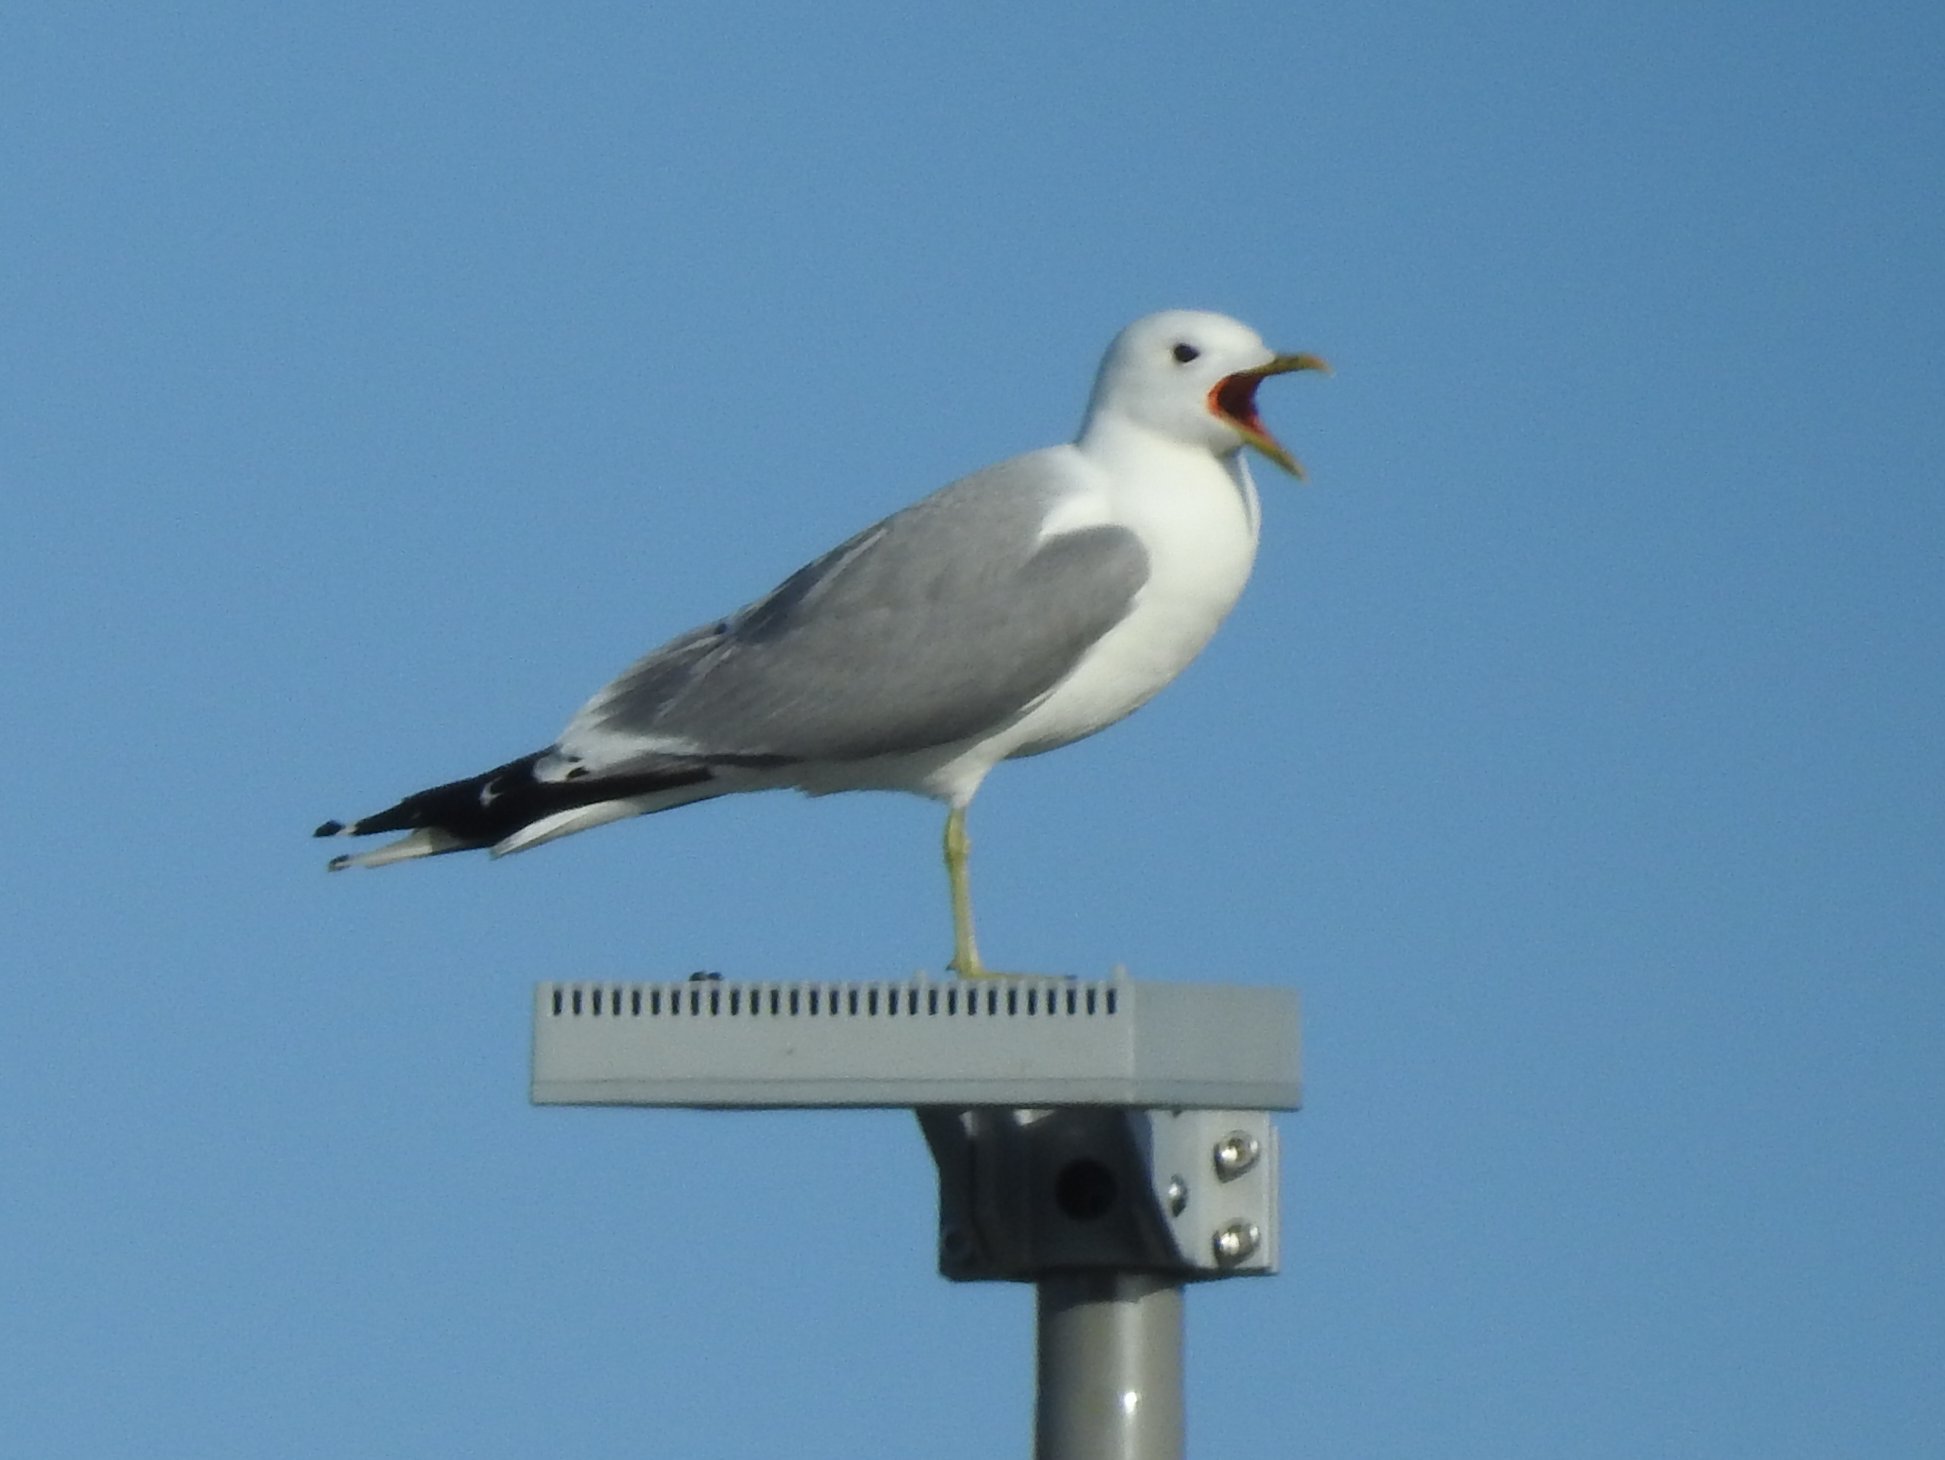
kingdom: Animalia
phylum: Chordata
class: Aves
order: Charadriiformes
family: Laridae
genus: Larus
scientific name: Larus canus
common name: Mew gull
